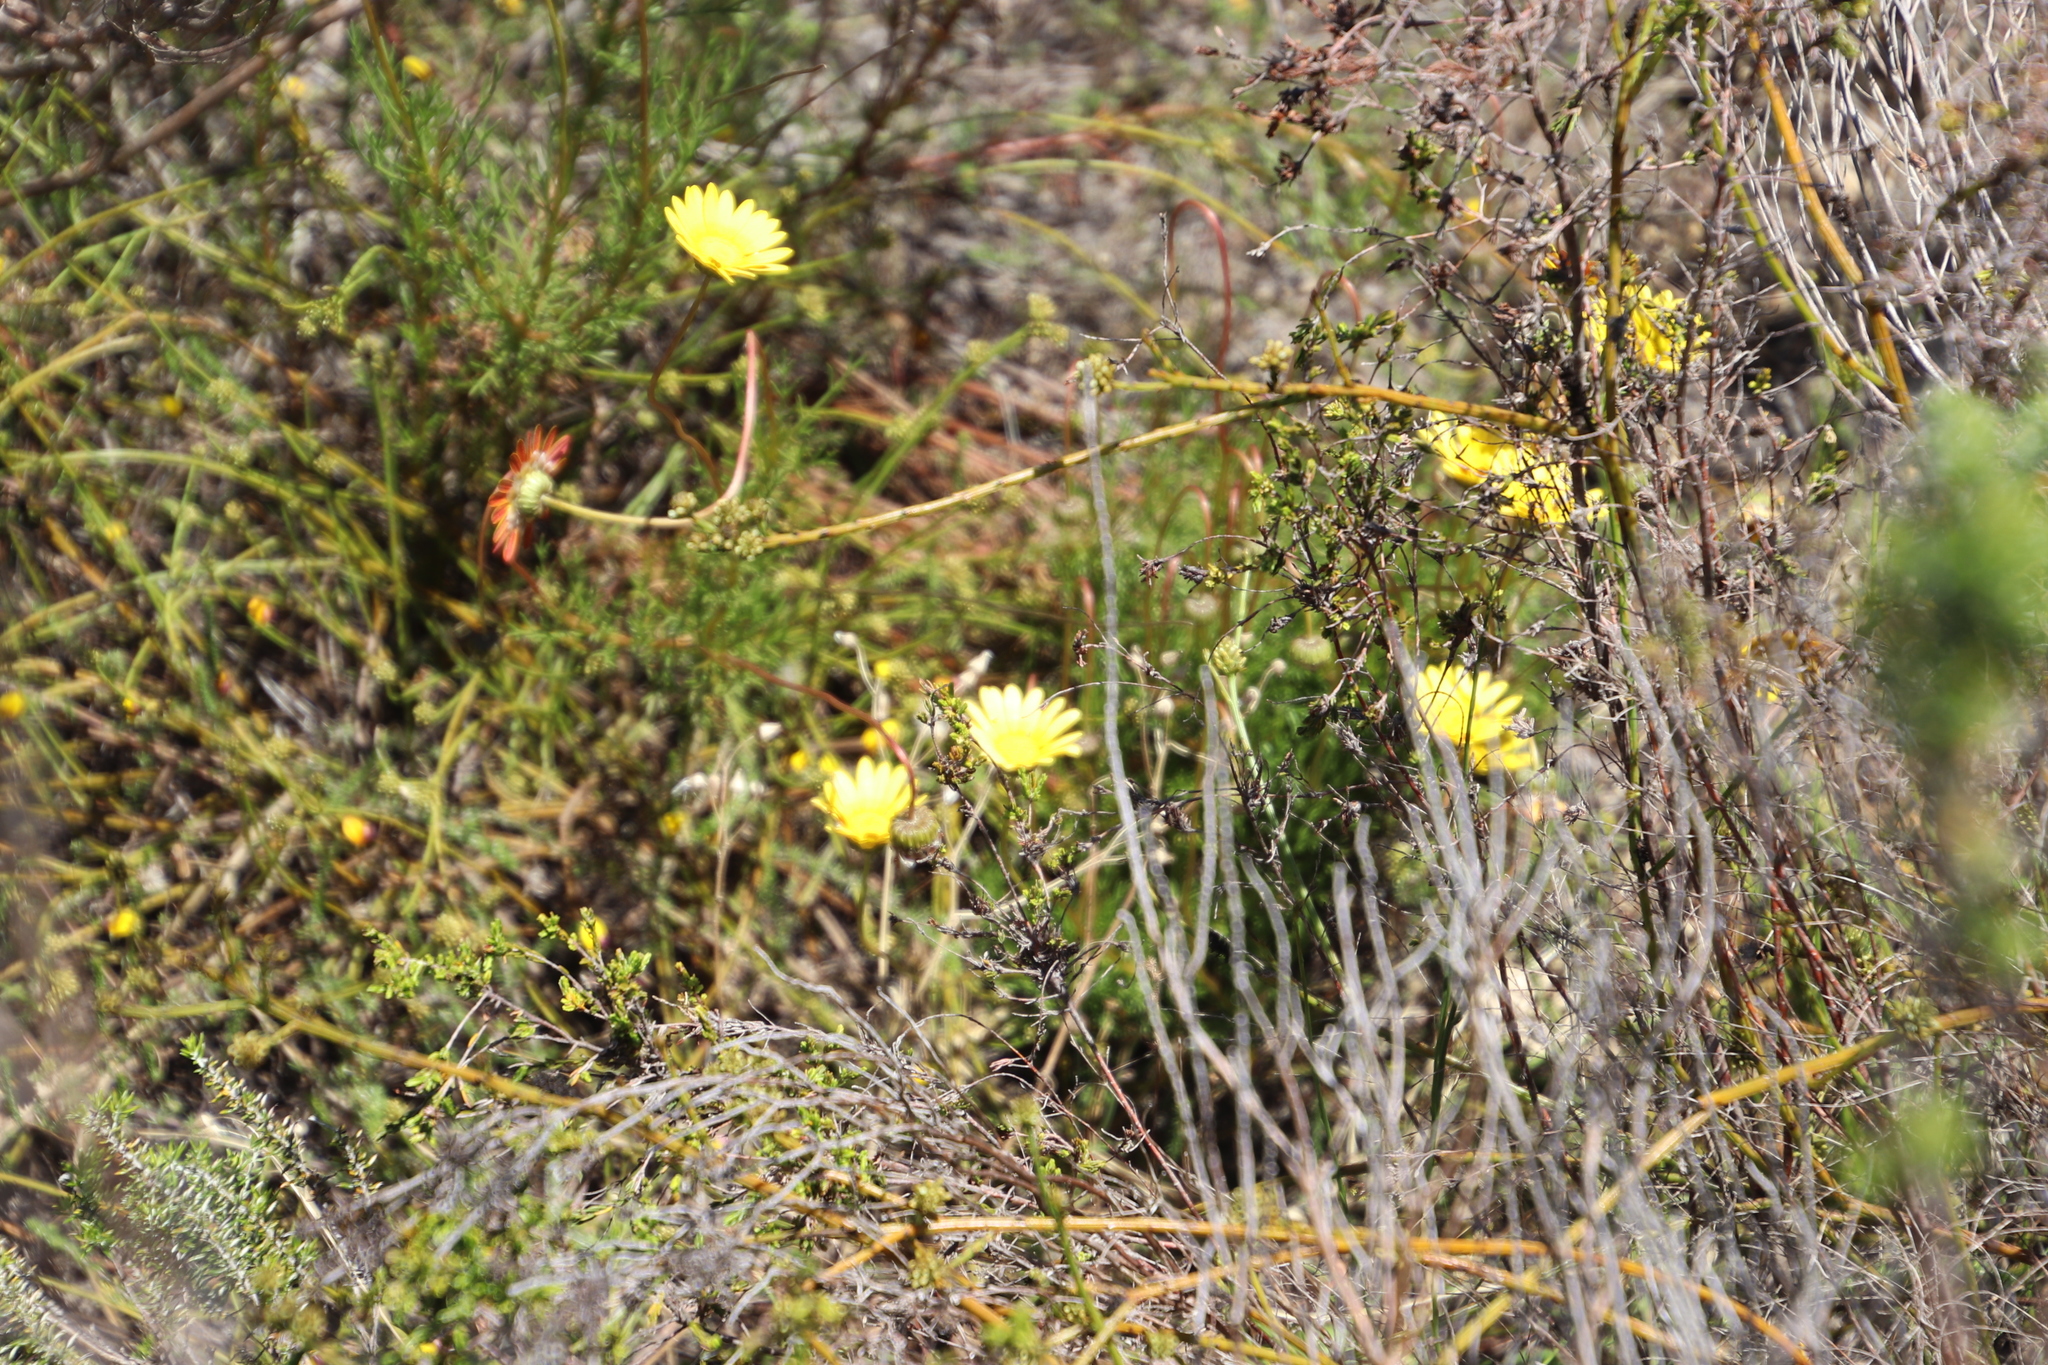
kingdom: Plantae
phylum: Tracheophyta
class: Magnoliopsida
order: Asterales
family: Asteraceae
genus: Ursinia
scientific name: Ursinia paleacea
